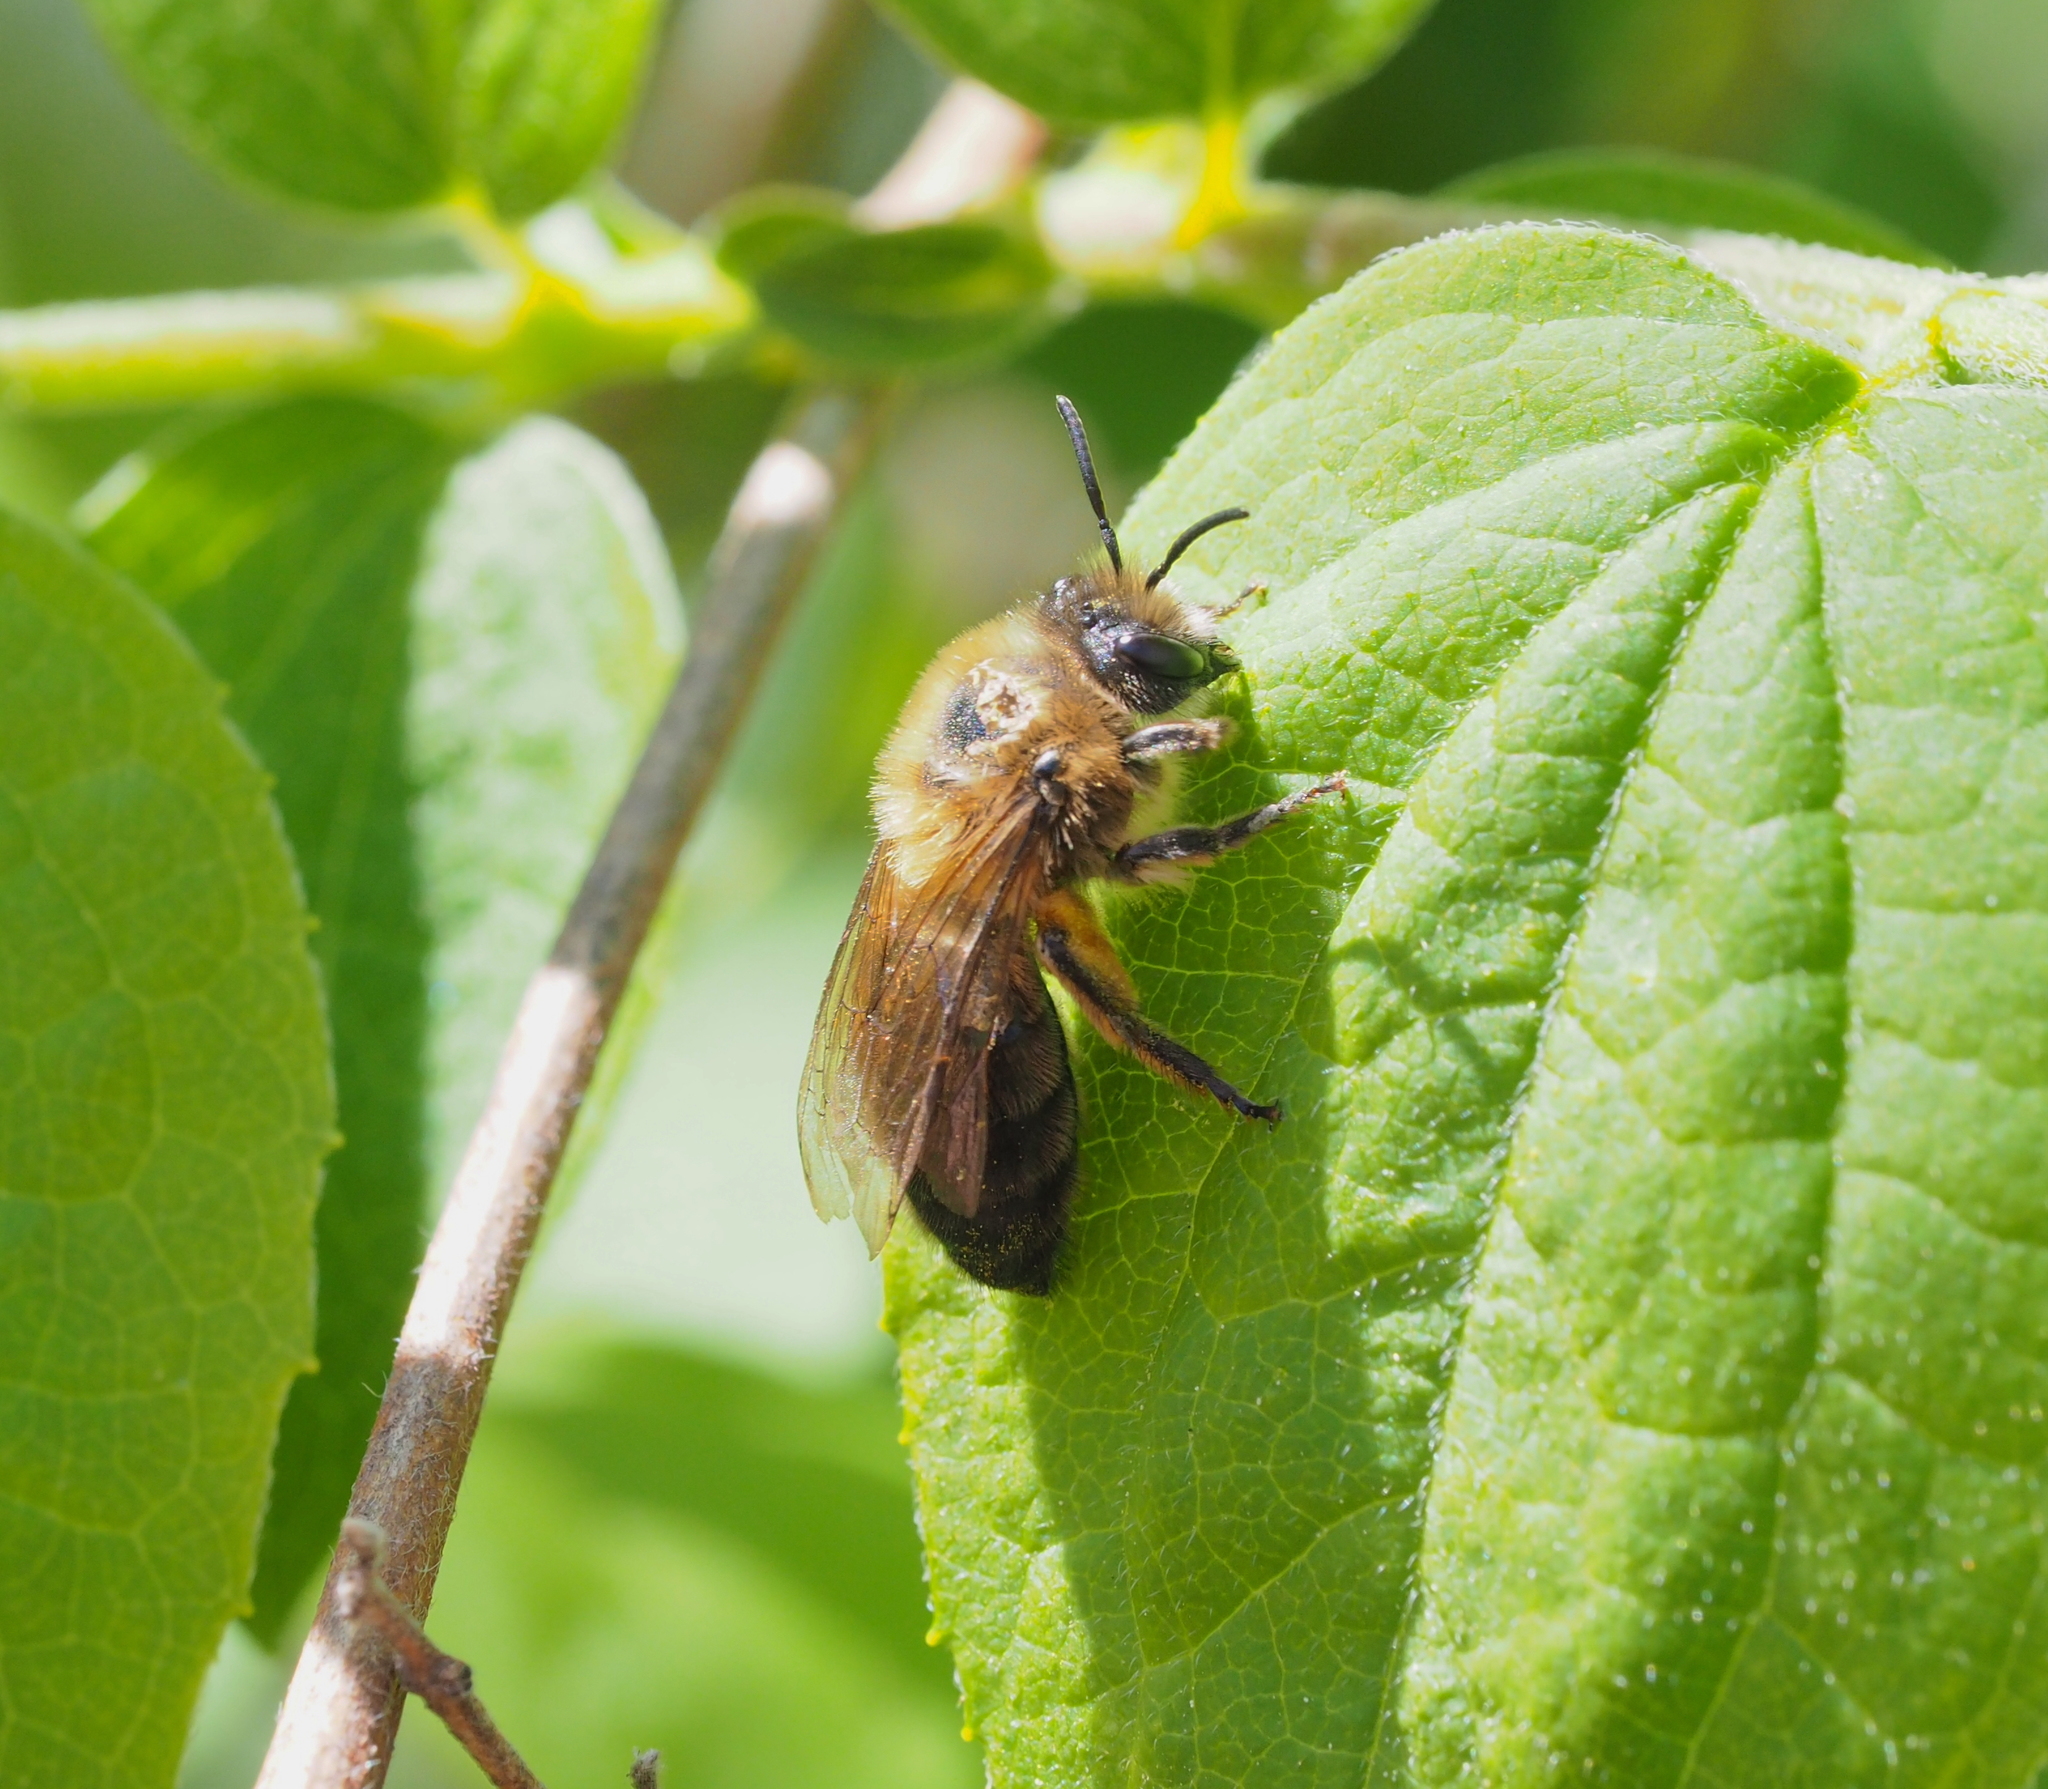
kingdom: Animalia
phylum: Arthropoda
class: Insecta
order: Hymenoptera
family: Colletidae
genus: Colletes
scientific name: Colletes cunicularius
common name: Early colletes
